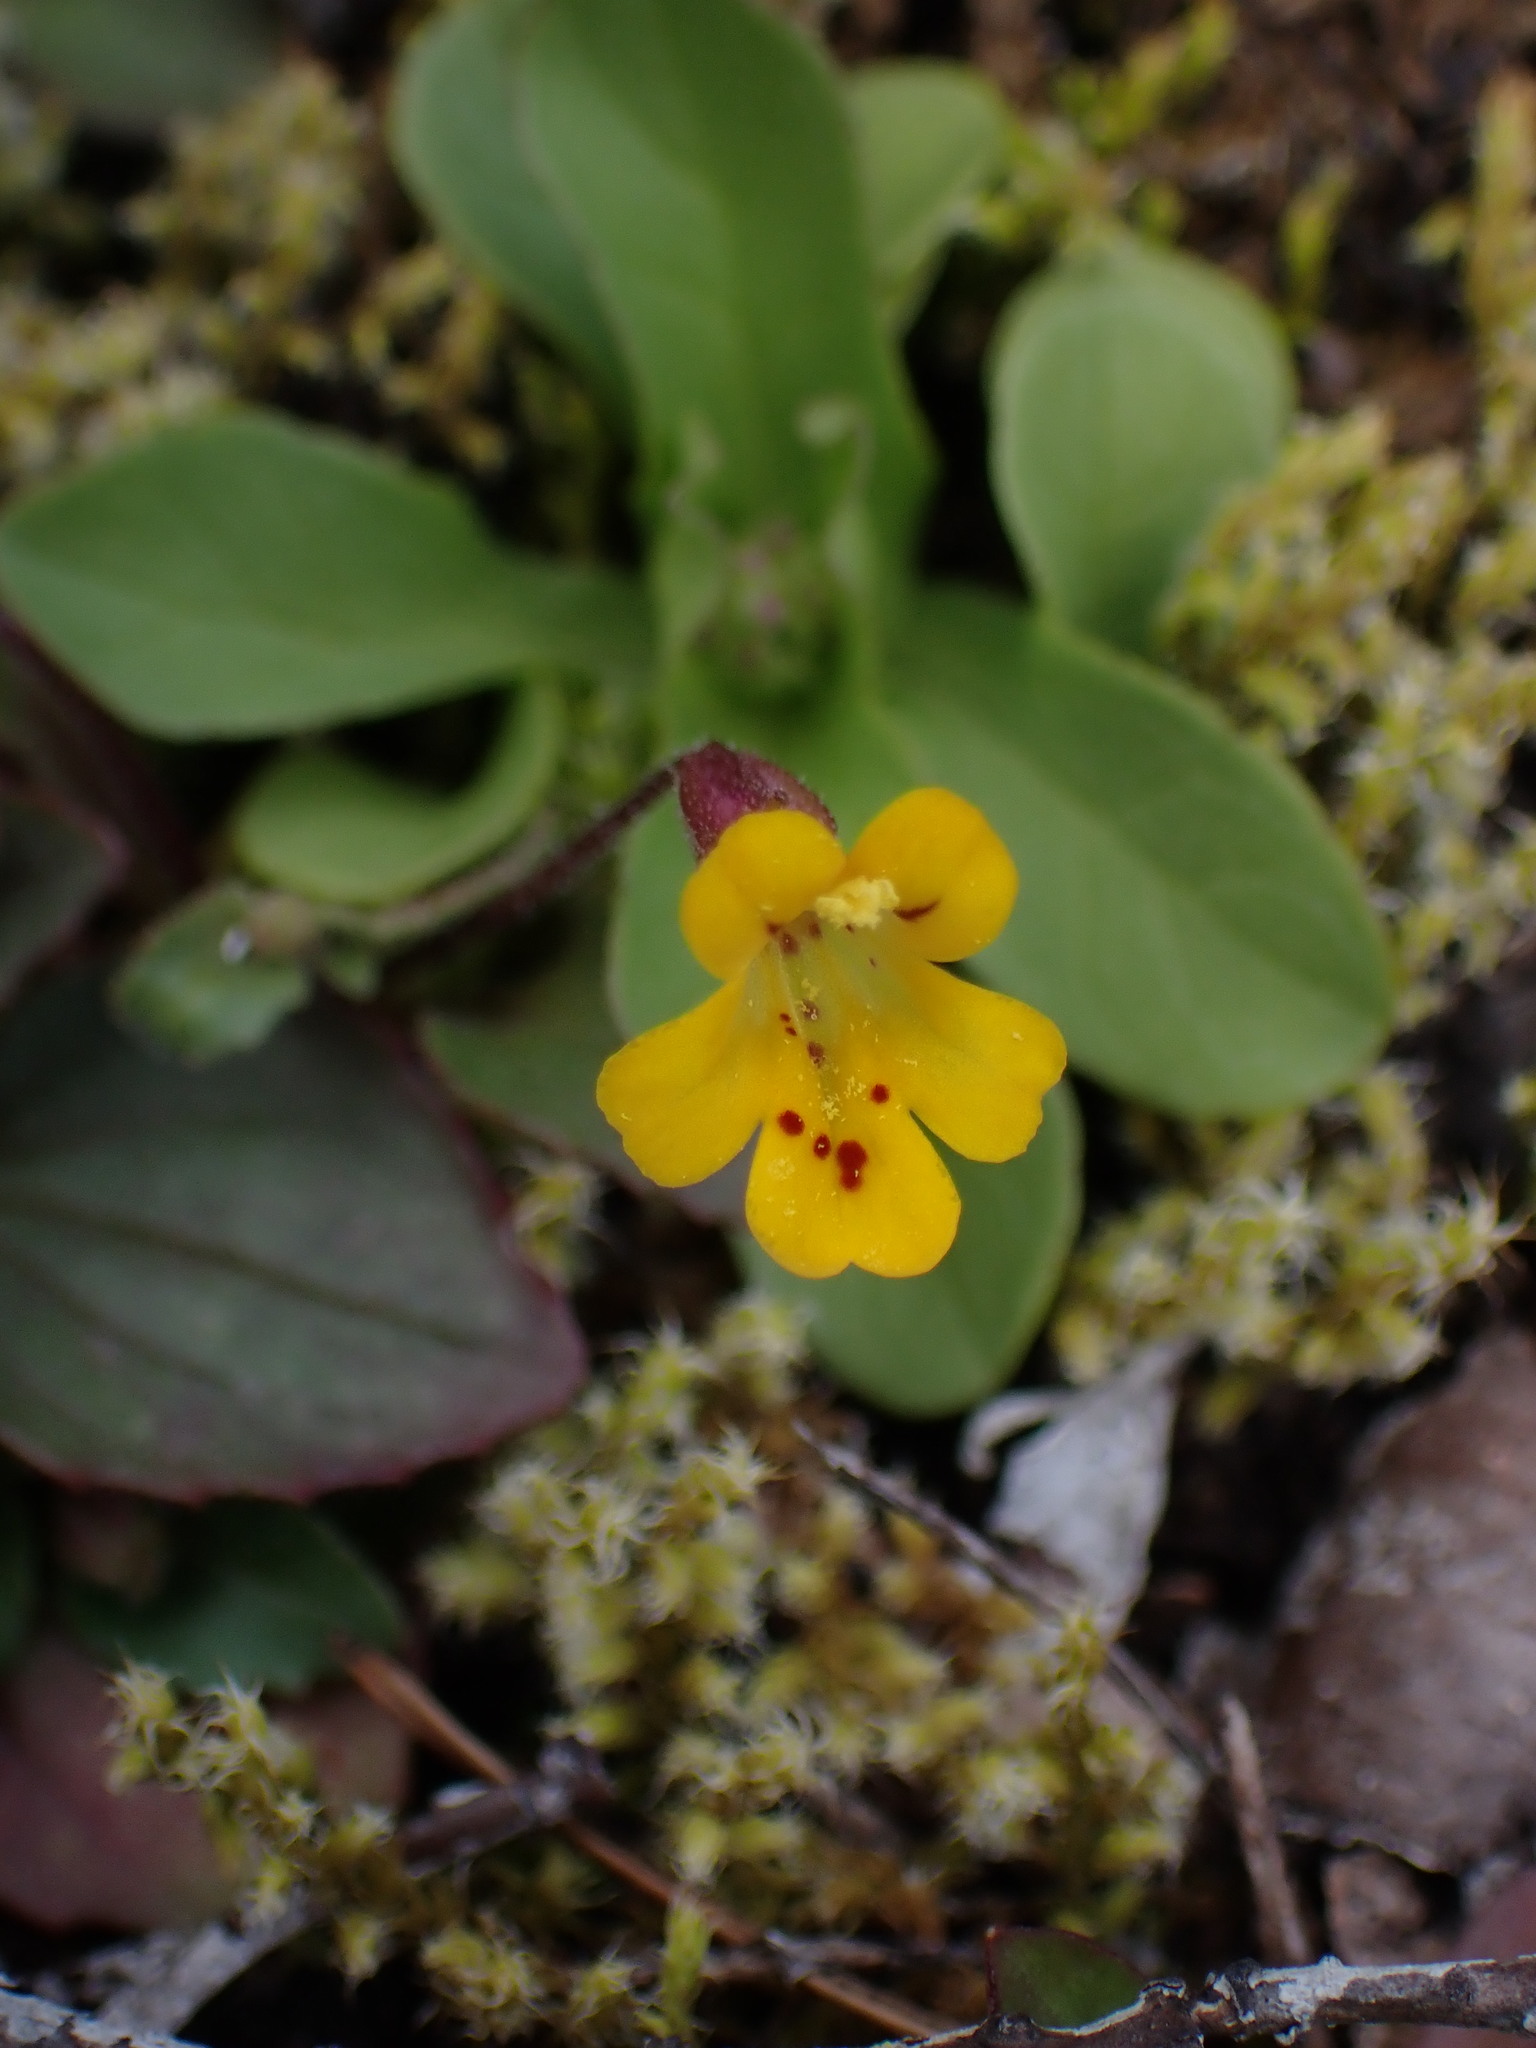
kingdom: Plantae
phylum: Tracheophyta
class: Magnoliopsida
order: Lamiales
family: Phrymaceae
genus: Erythranthe
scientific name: Erythranthe alsinoides
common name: Chickweed monkeyflower
